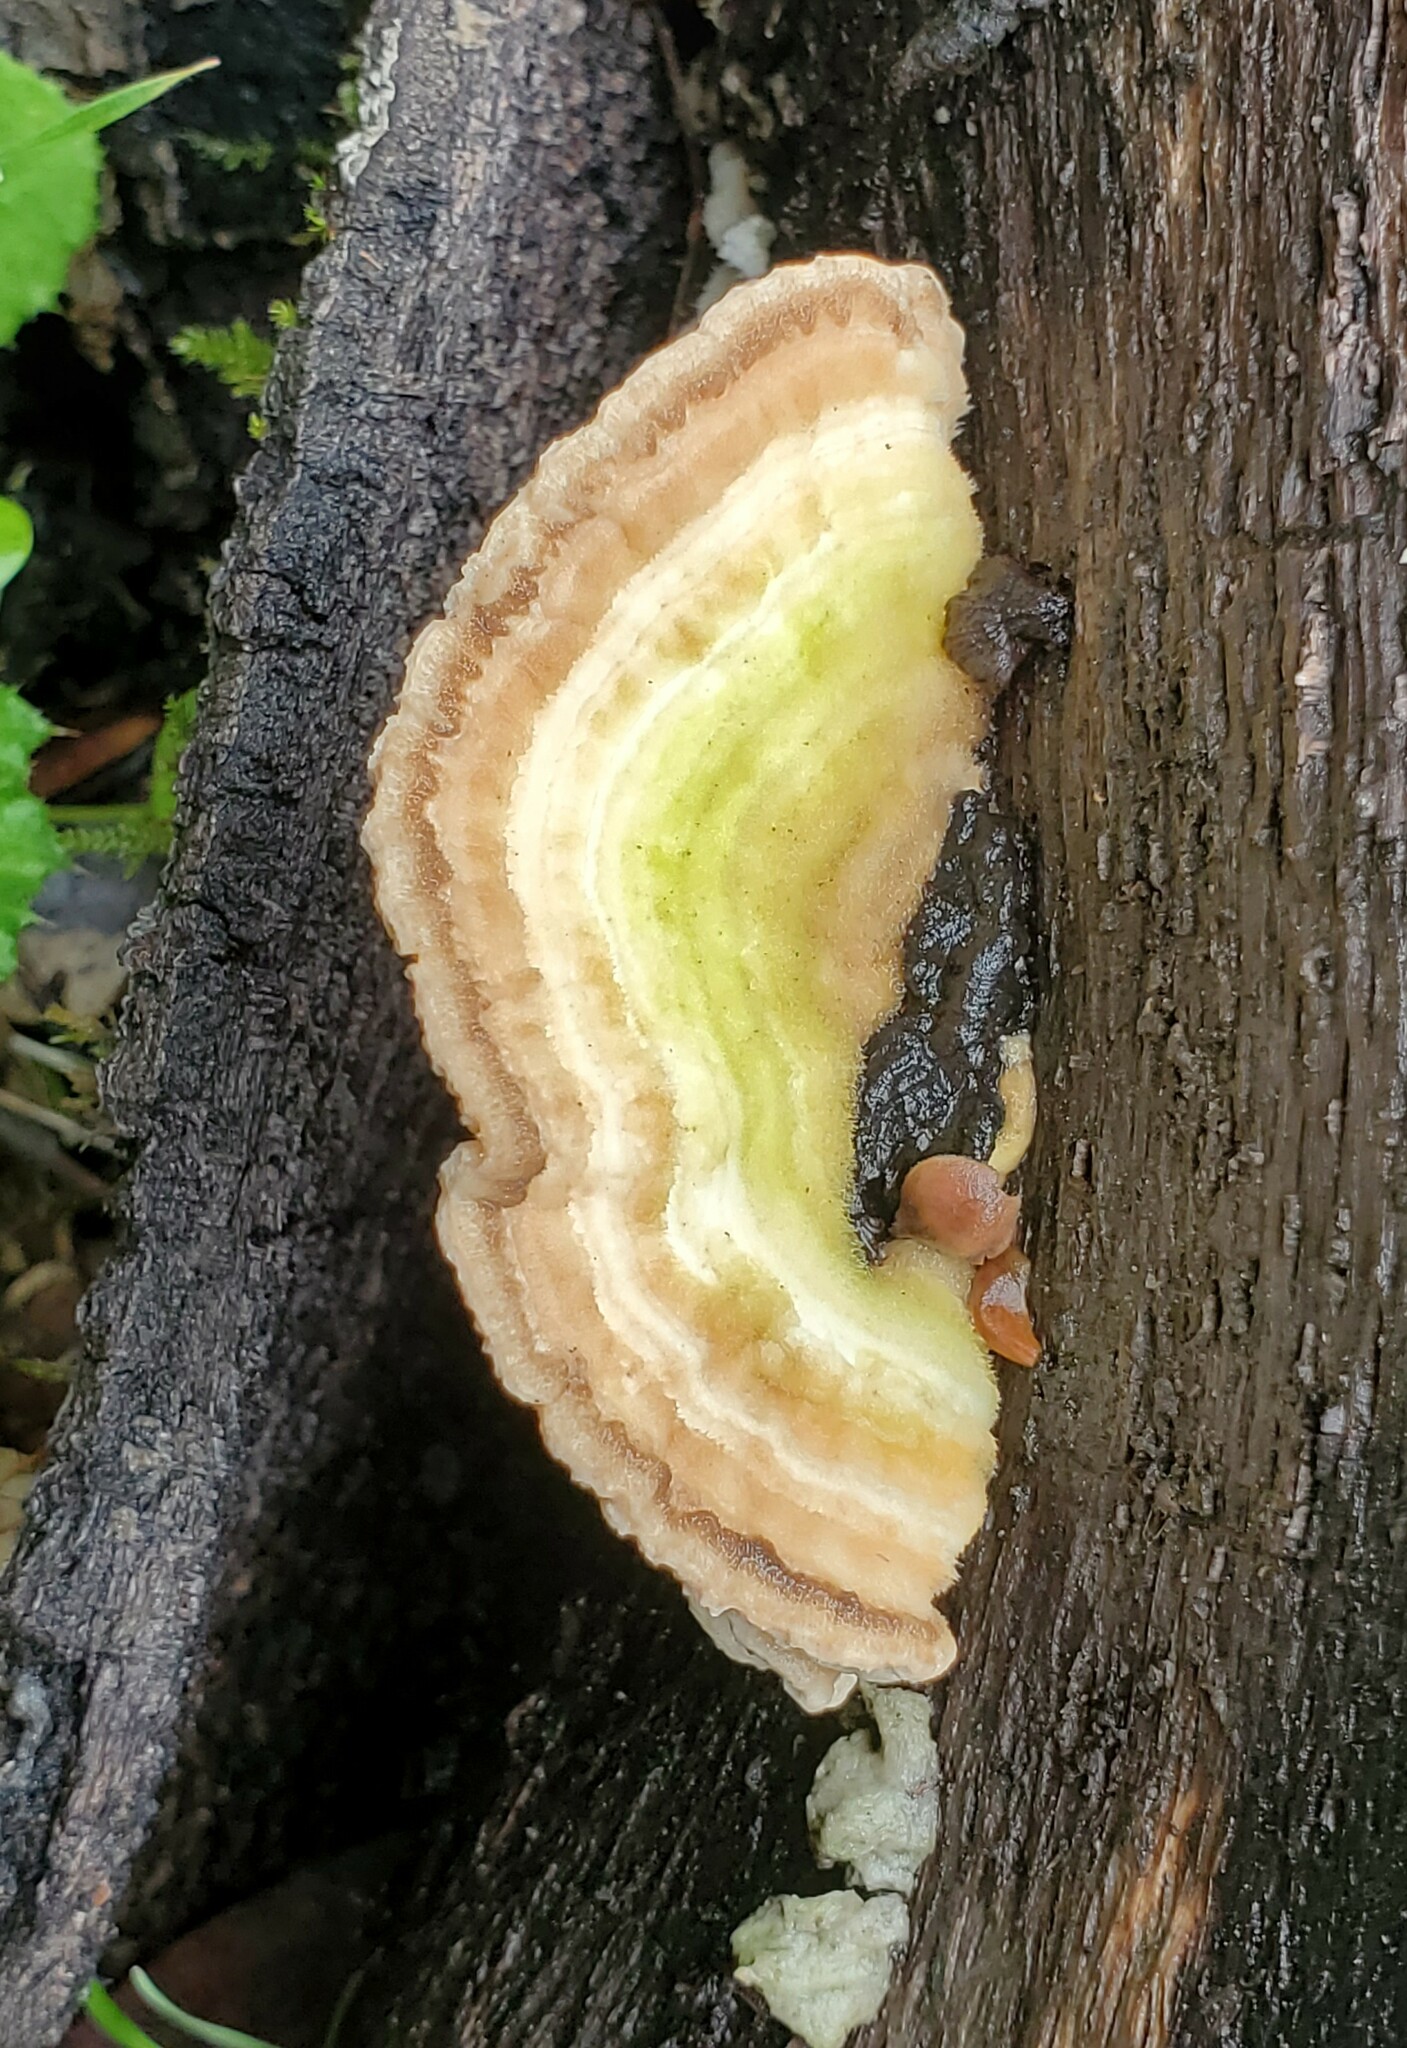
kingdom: Fungi
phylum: Basidiomycota
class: Agaricomycetes
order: Polyporales
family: Polyporaceae
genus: Lenzites
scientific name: Lenzites betulinus
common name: Birch mazegill
